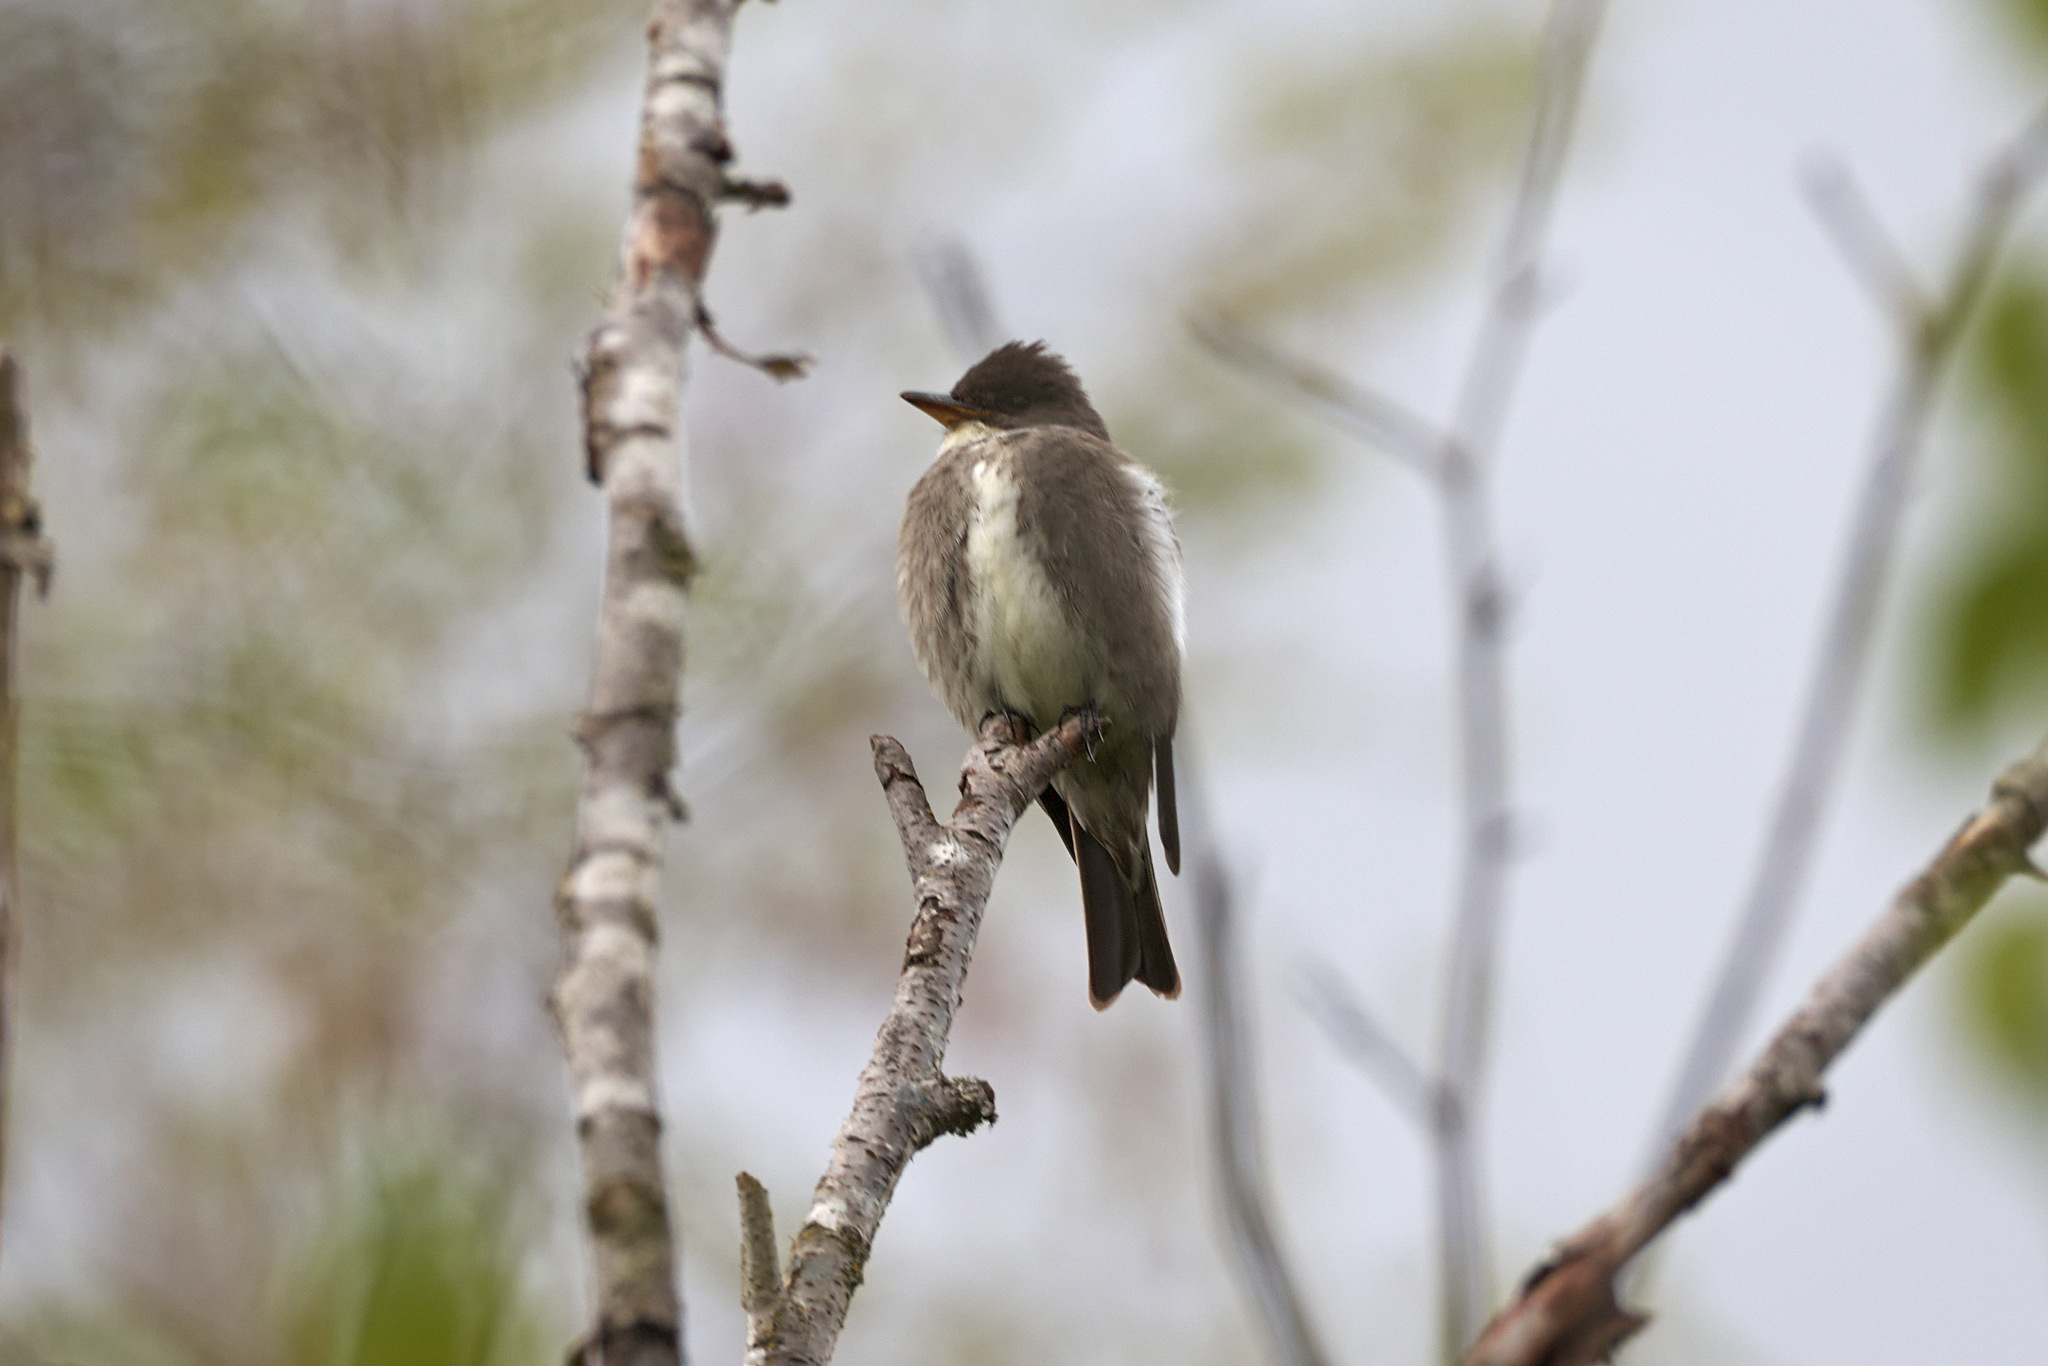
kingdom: Animalia
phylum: Chordata
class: Aves
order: Passeriformes
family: Tyrannidae
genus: Contopus
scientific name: Contopus cooperi
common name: Olive-sided flycatcher
